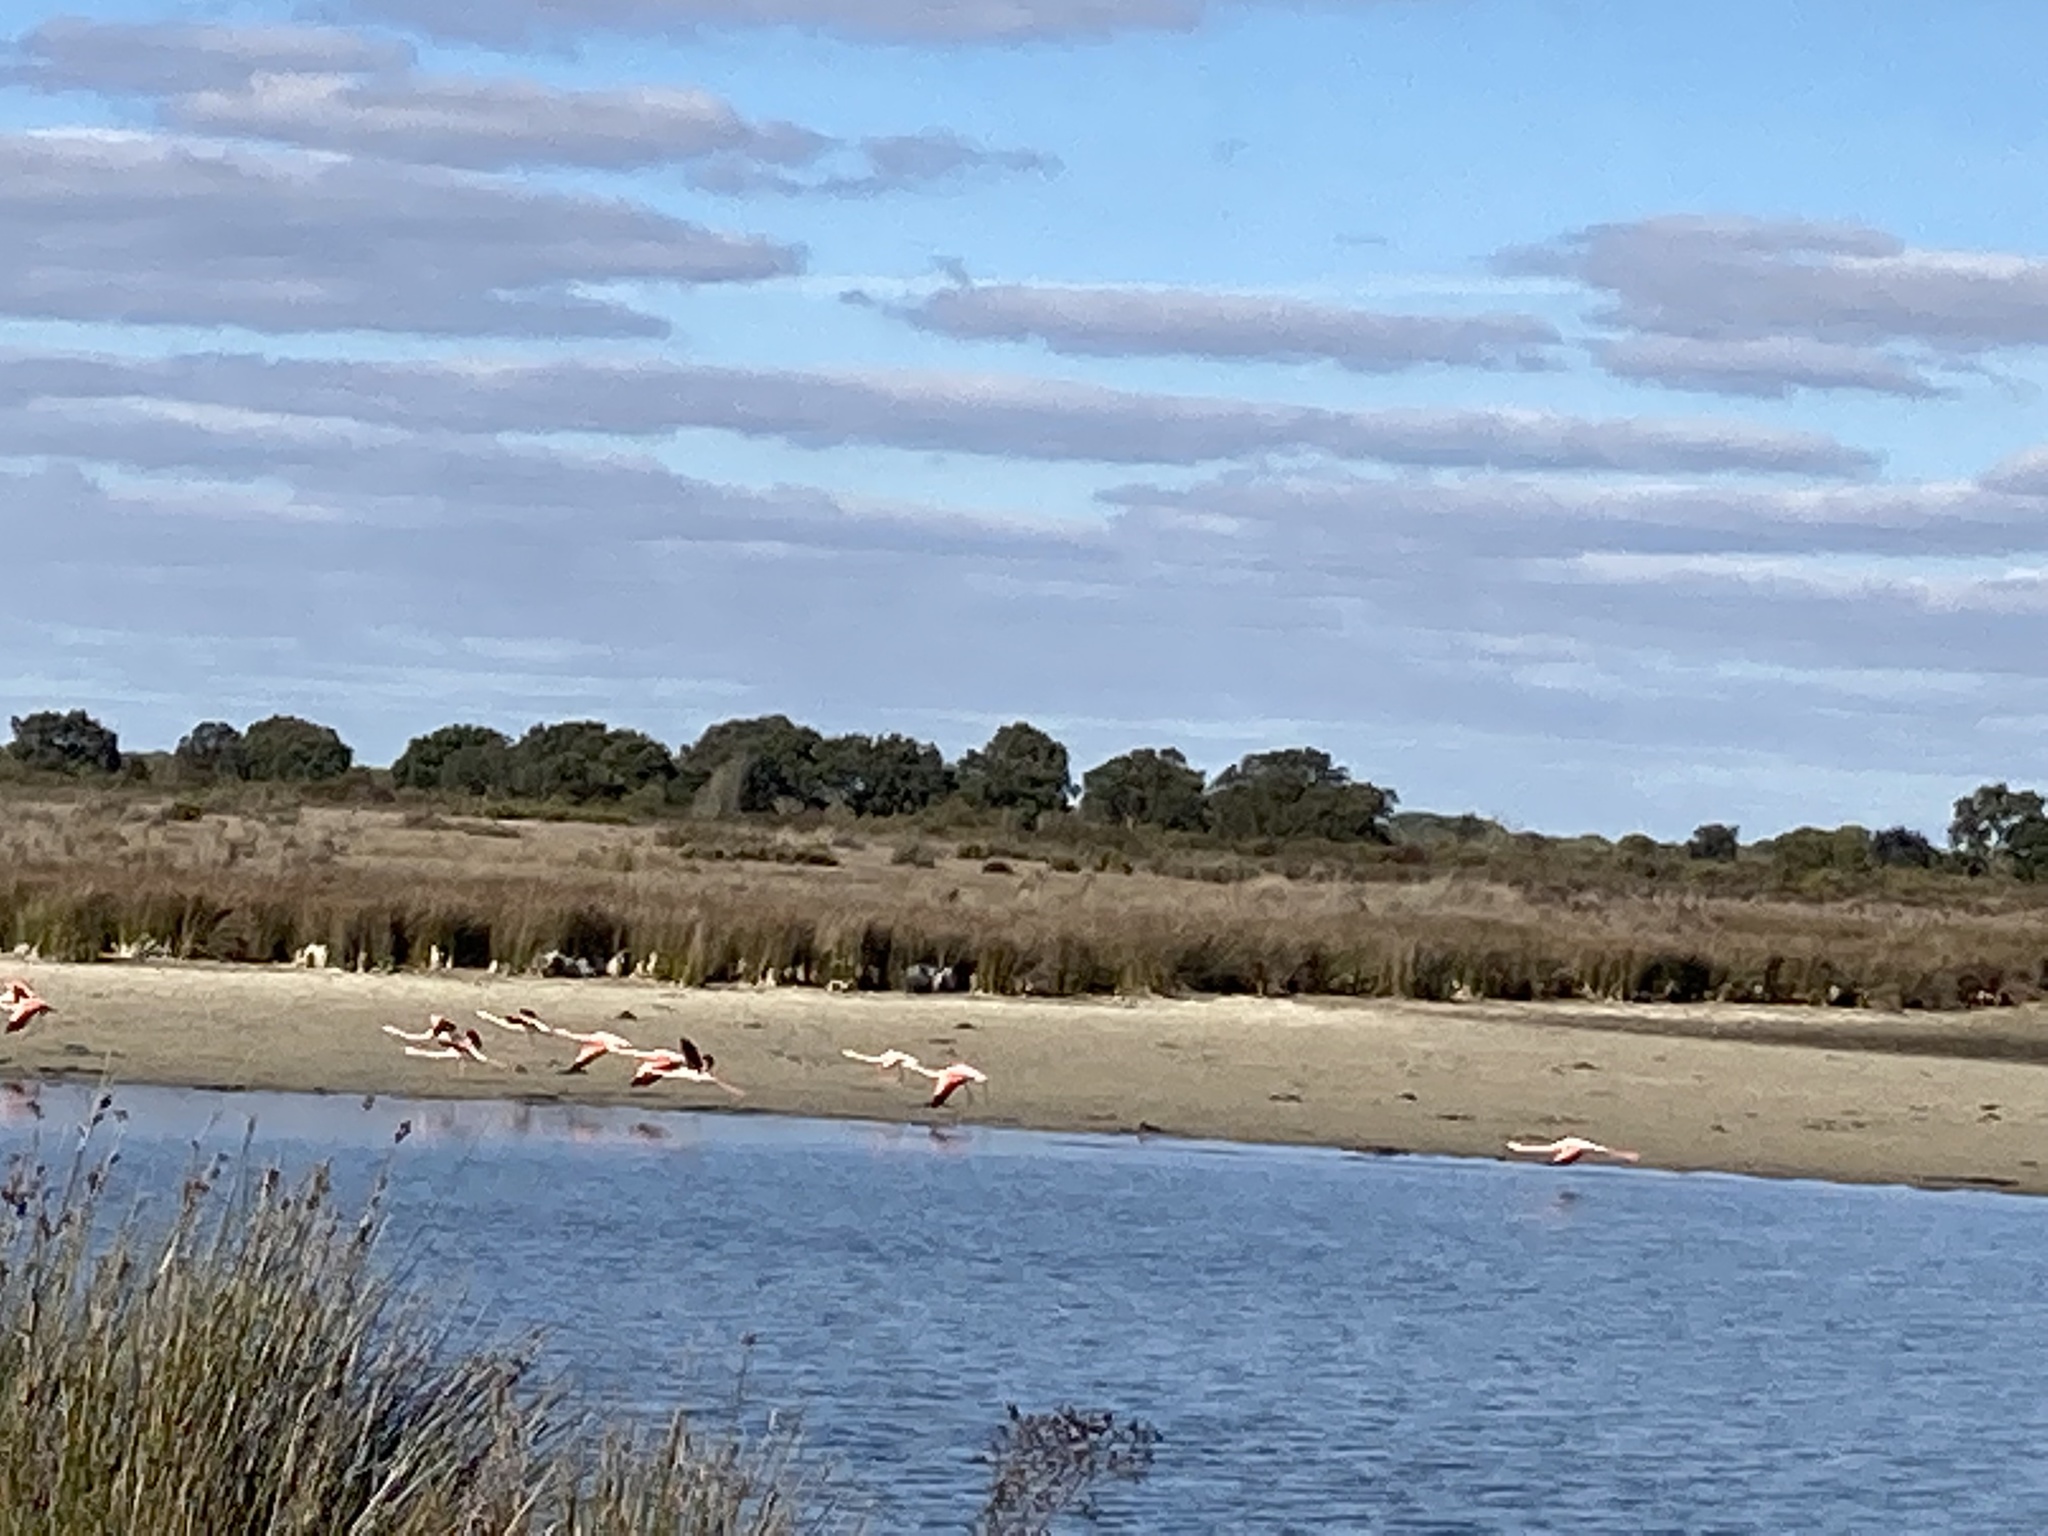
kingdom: Animalia
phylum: Chordata
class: Aves
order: Phoenicopteriformes
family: Phoenicopteridae
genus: Phoenicopterus
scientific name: Phoenicopterus roseus
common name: Greater flamingo
